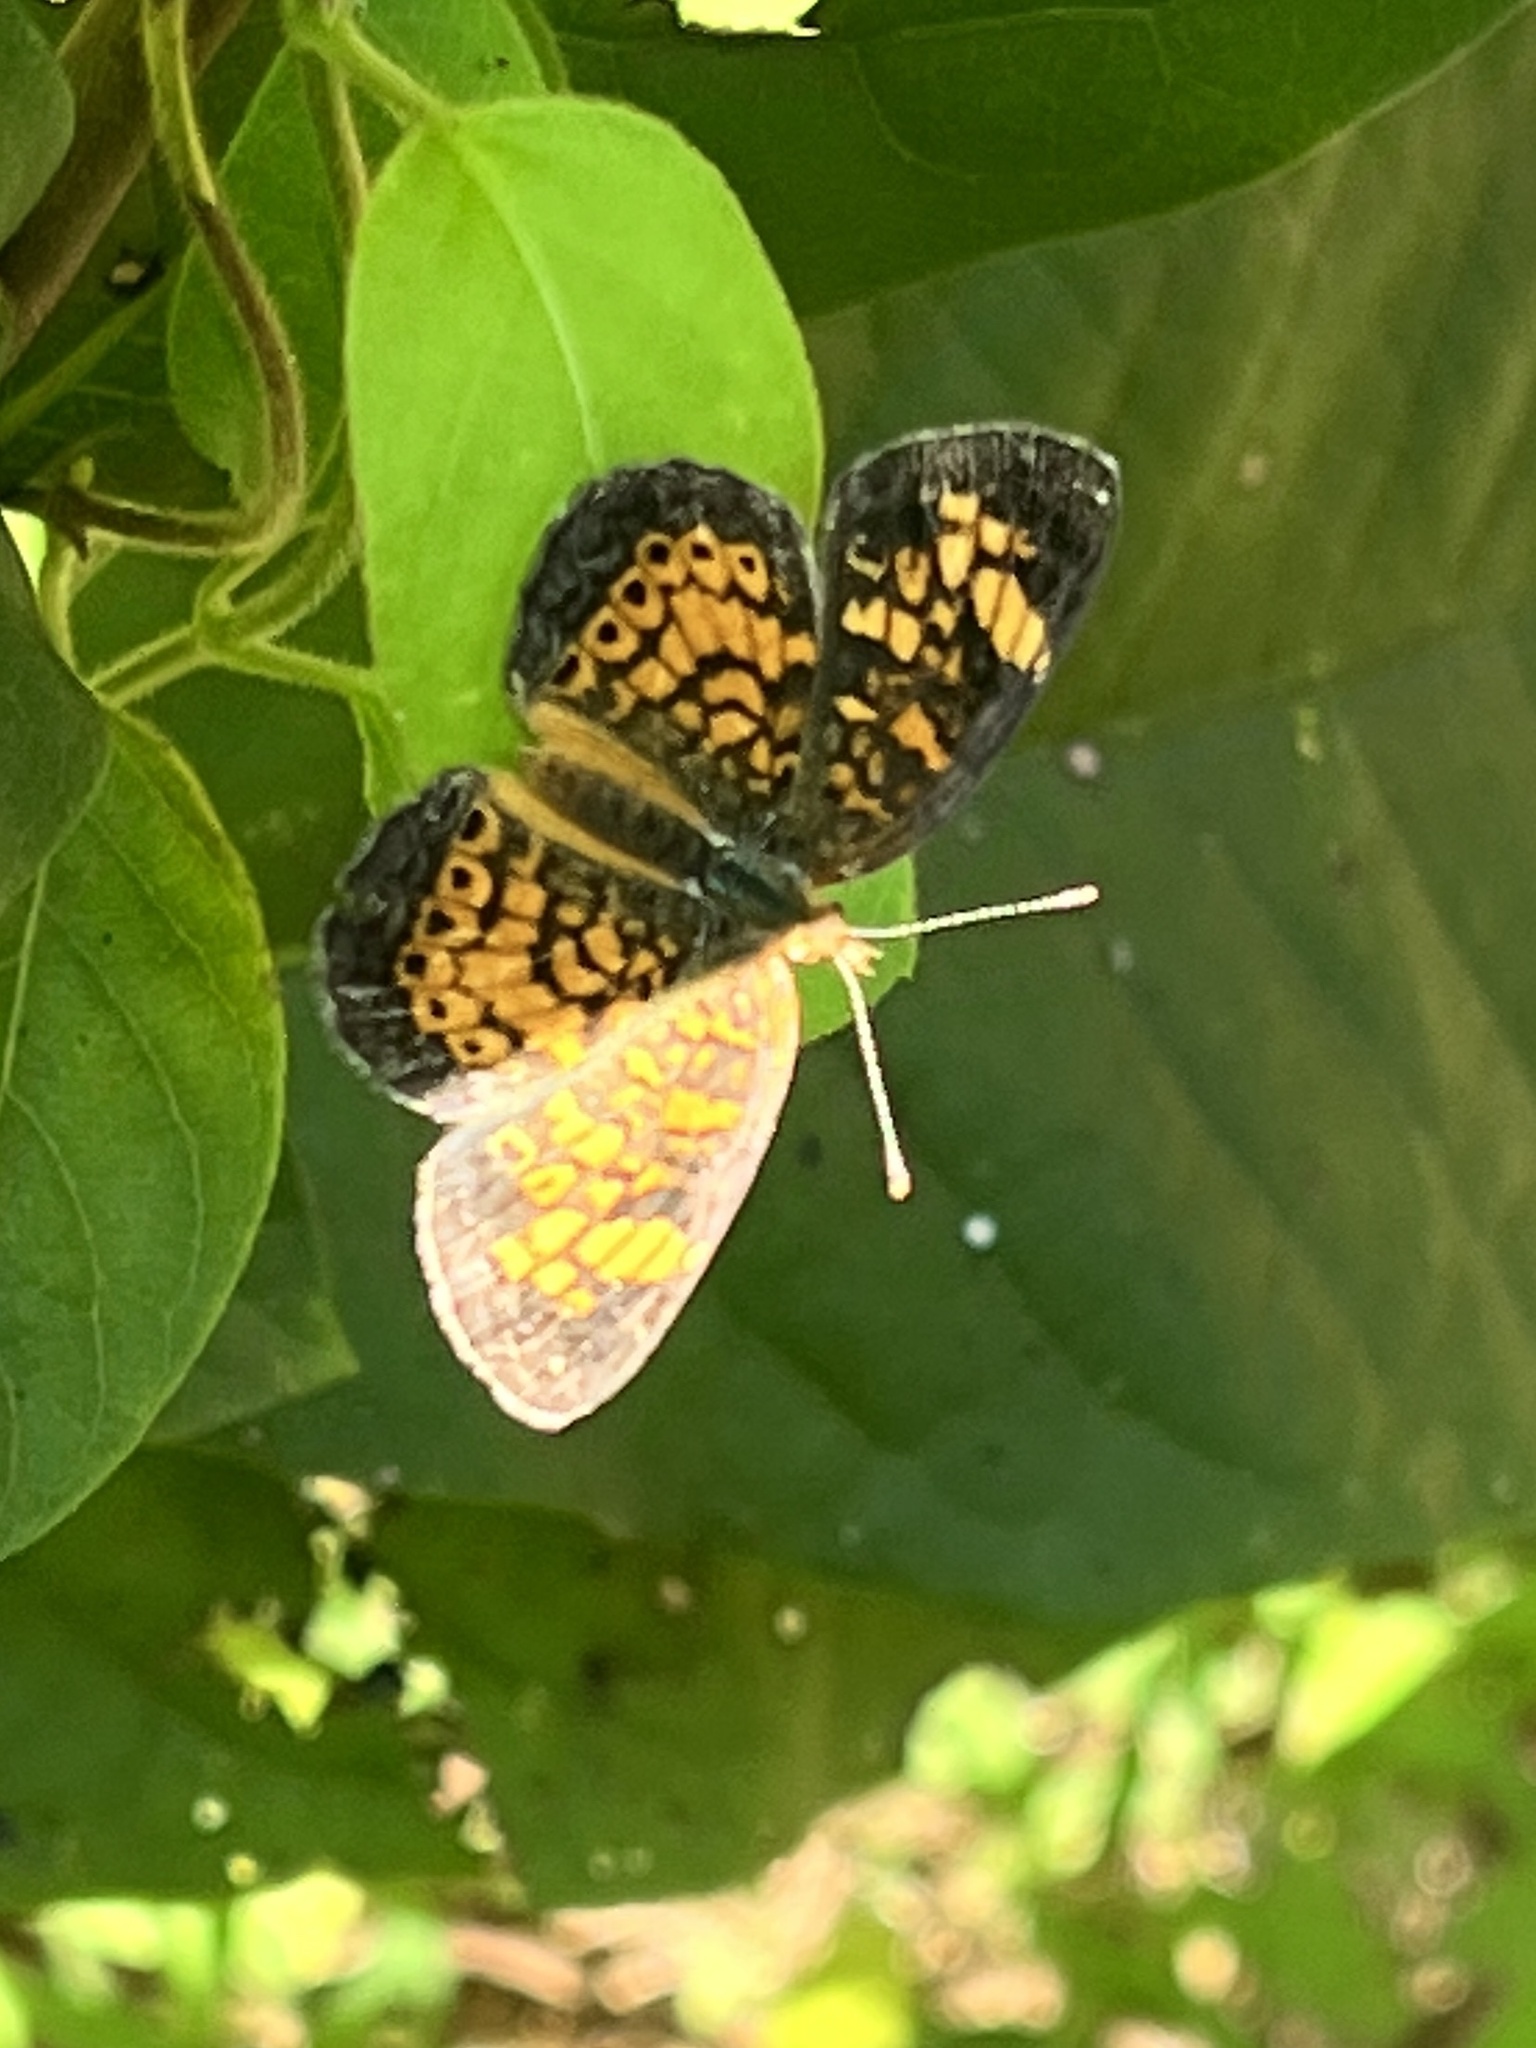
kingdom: Animalia
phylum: Arthropoda
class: Insecta
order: Lepidoptera
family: Nymphalidae
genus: Phyciodes
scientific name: Phyciodes tharos
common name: Pearl crescent
